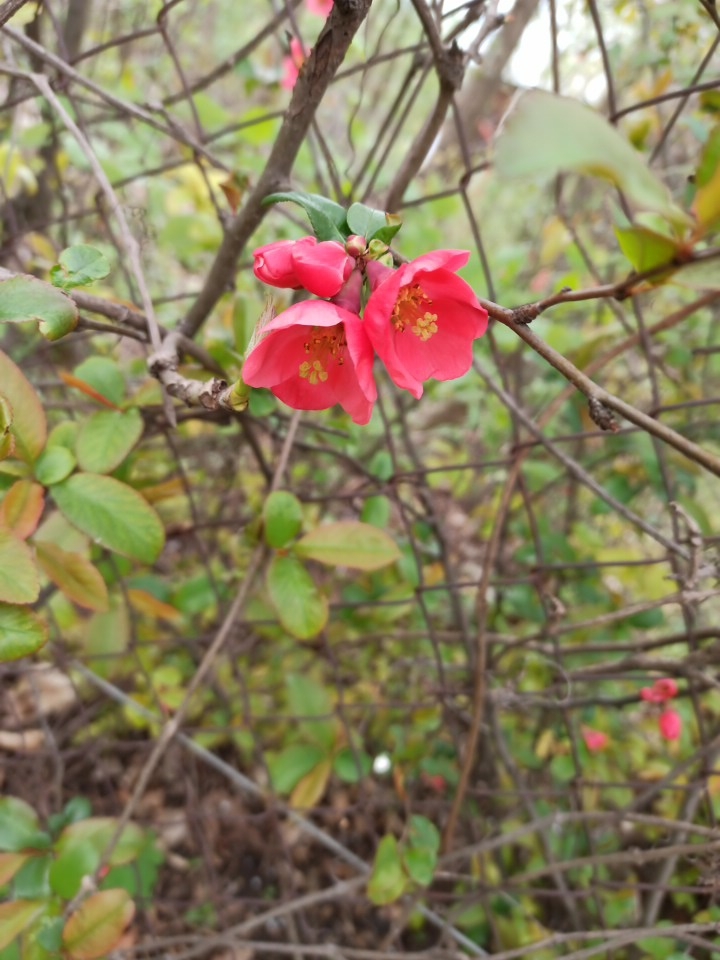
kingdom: Plantae
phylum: Tracheophyta
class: Magnoliopsida
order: Rosales
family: Rosaceae
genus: Chaenomeles
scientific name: Chaenomeles speciosa
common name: Japanese quince
